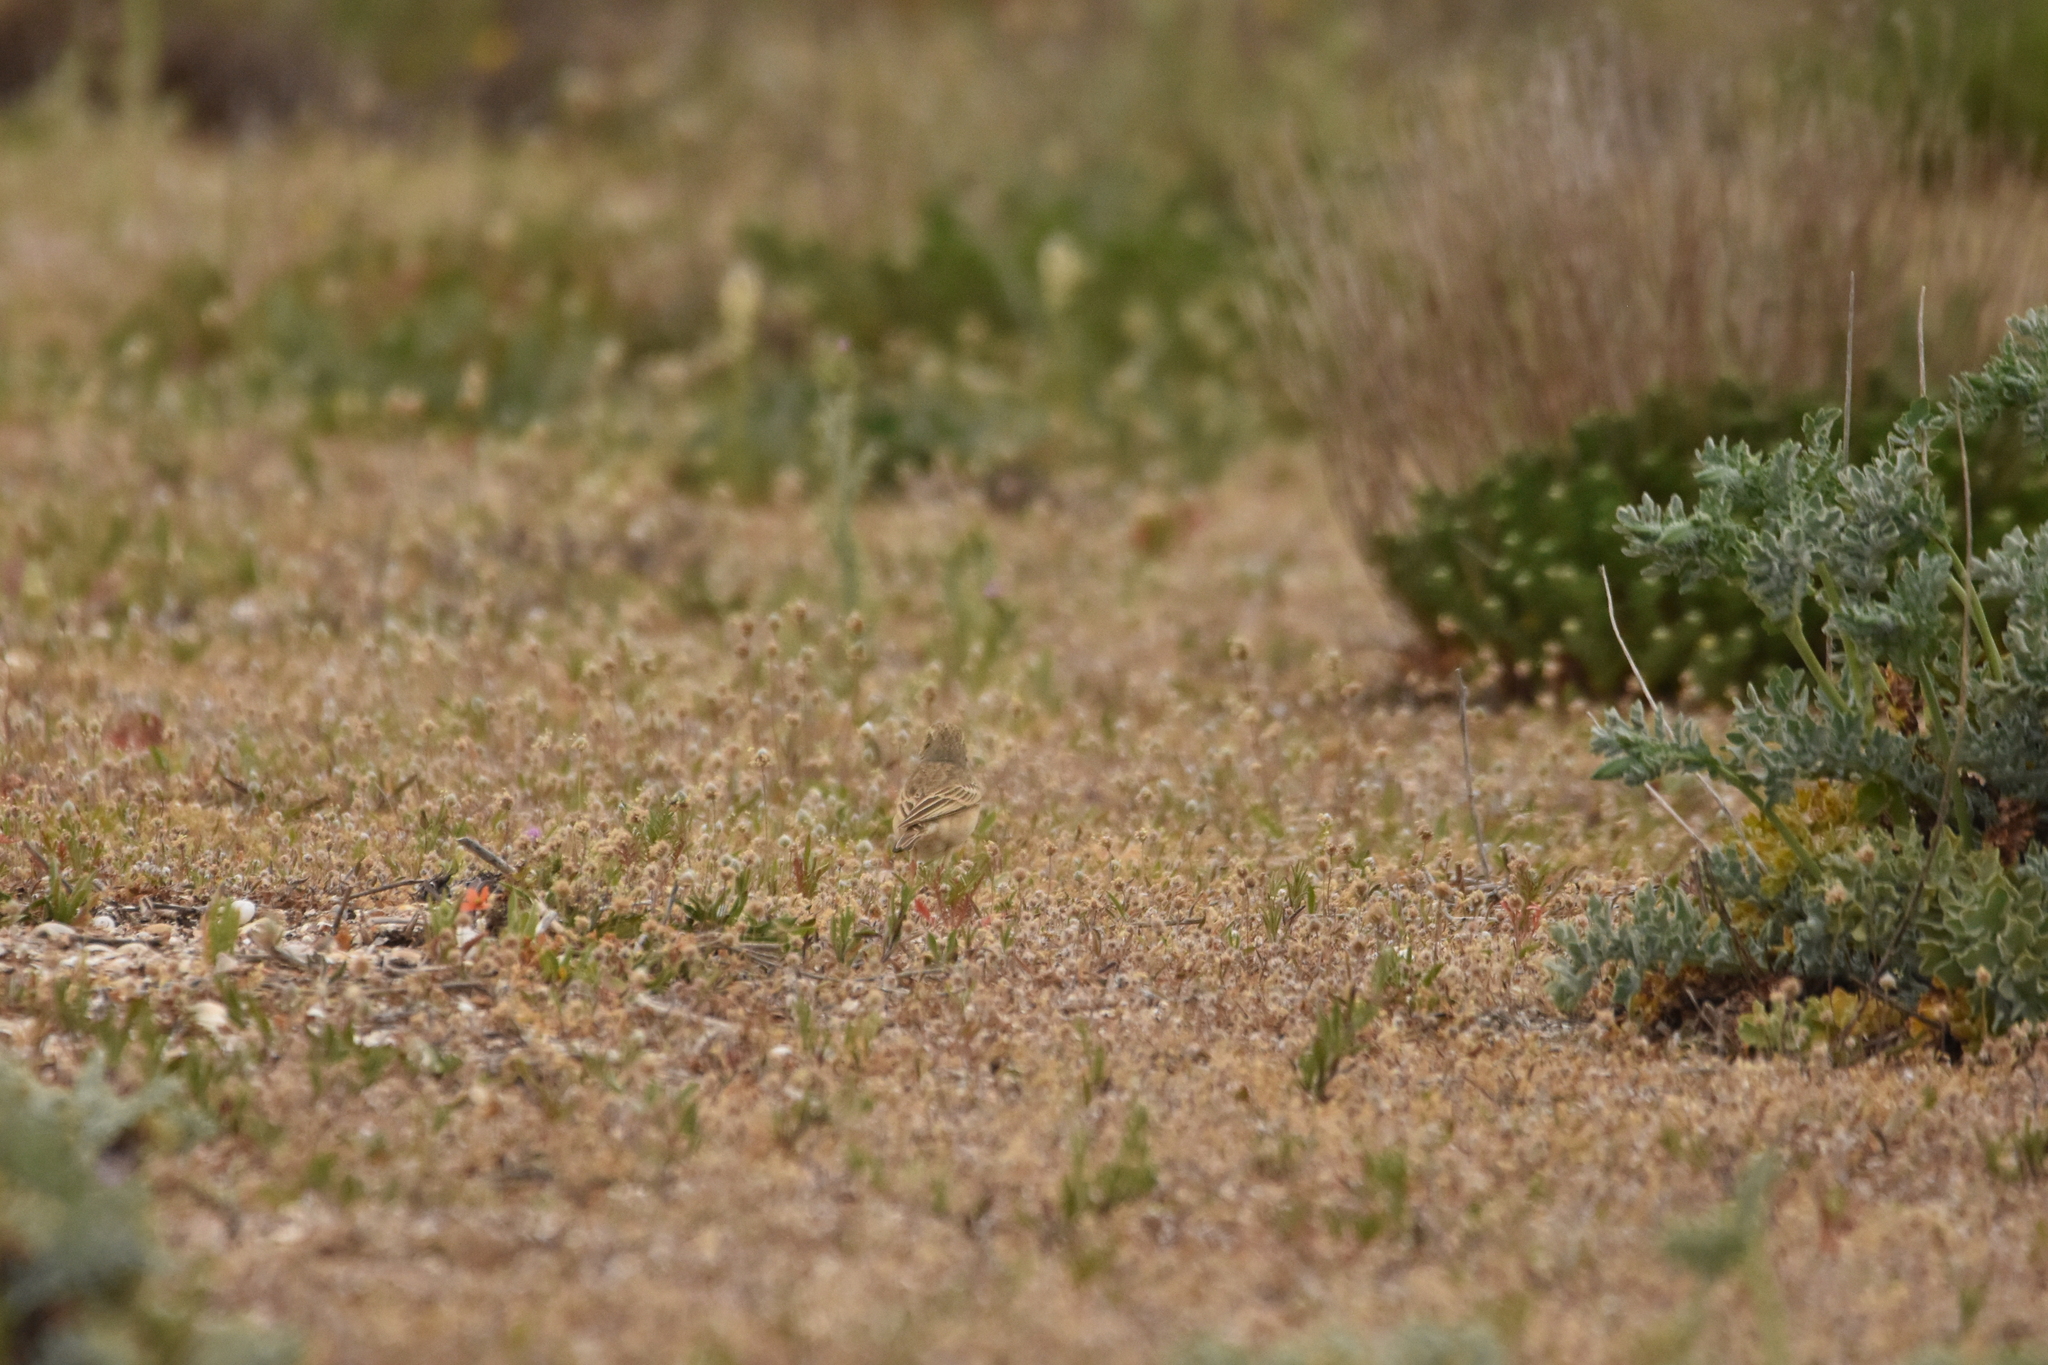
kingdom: Animalia
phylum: Chordata
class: Aves
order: Passeriformes
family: Motacillidae
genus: Anthus
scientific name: Anthus campestris
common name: Tawny pipit
